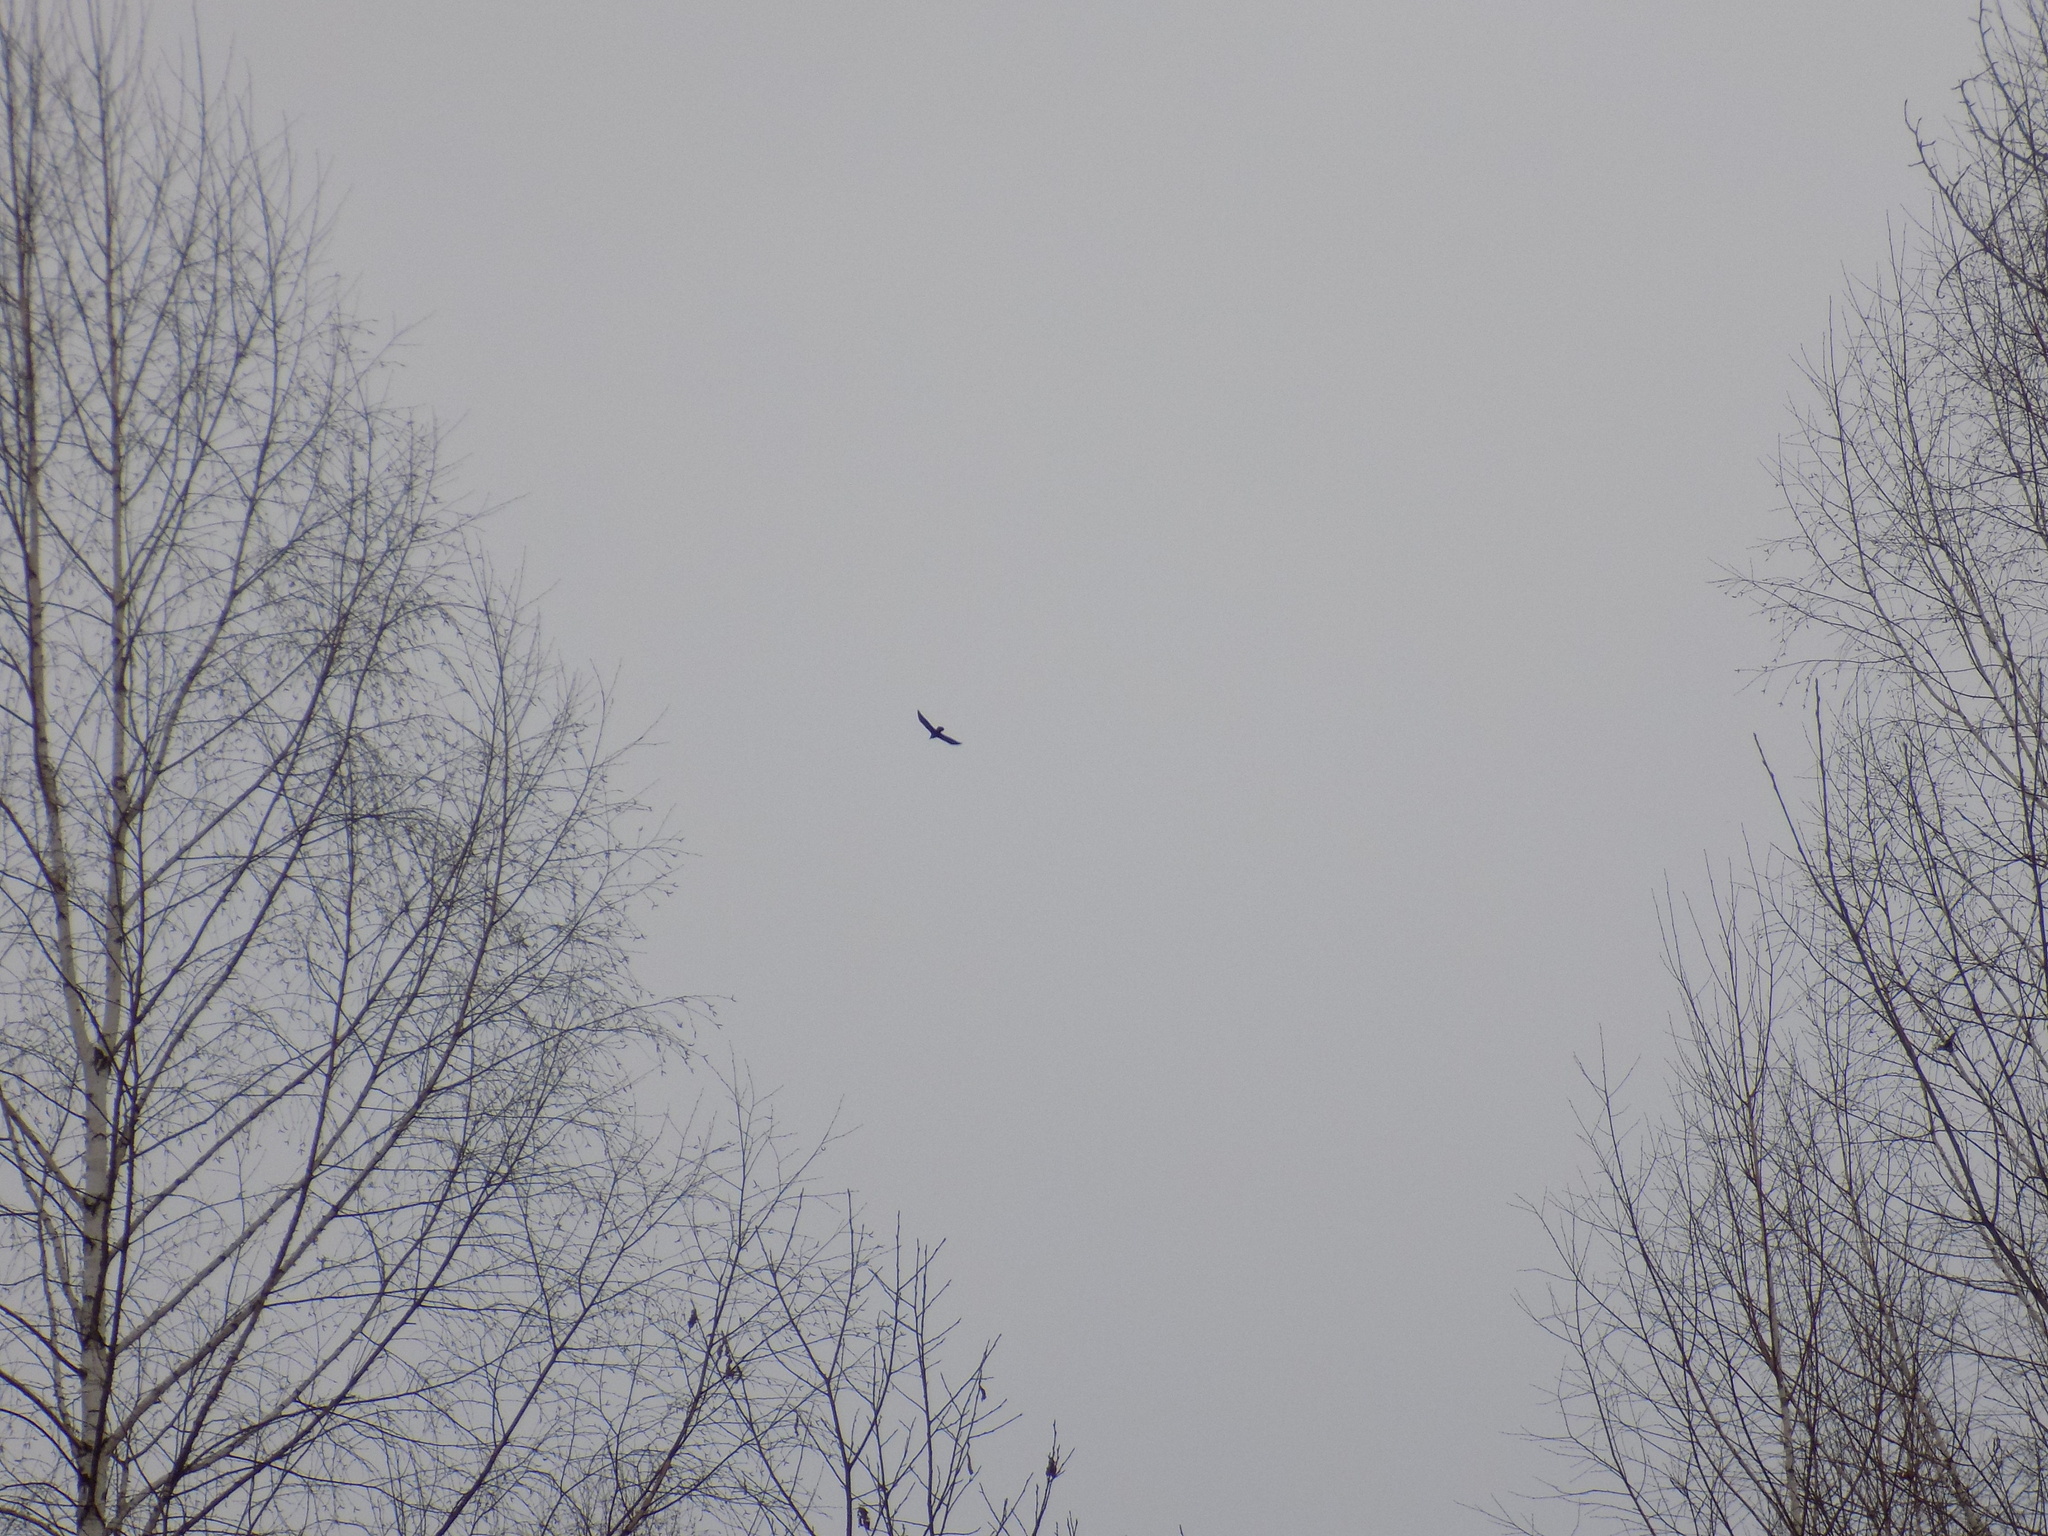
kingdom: Animalia
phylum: Chordata
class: Aves
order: Passeriformes
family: Corvidae
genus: Corvus
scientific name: Corvus corax
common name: Common raven
